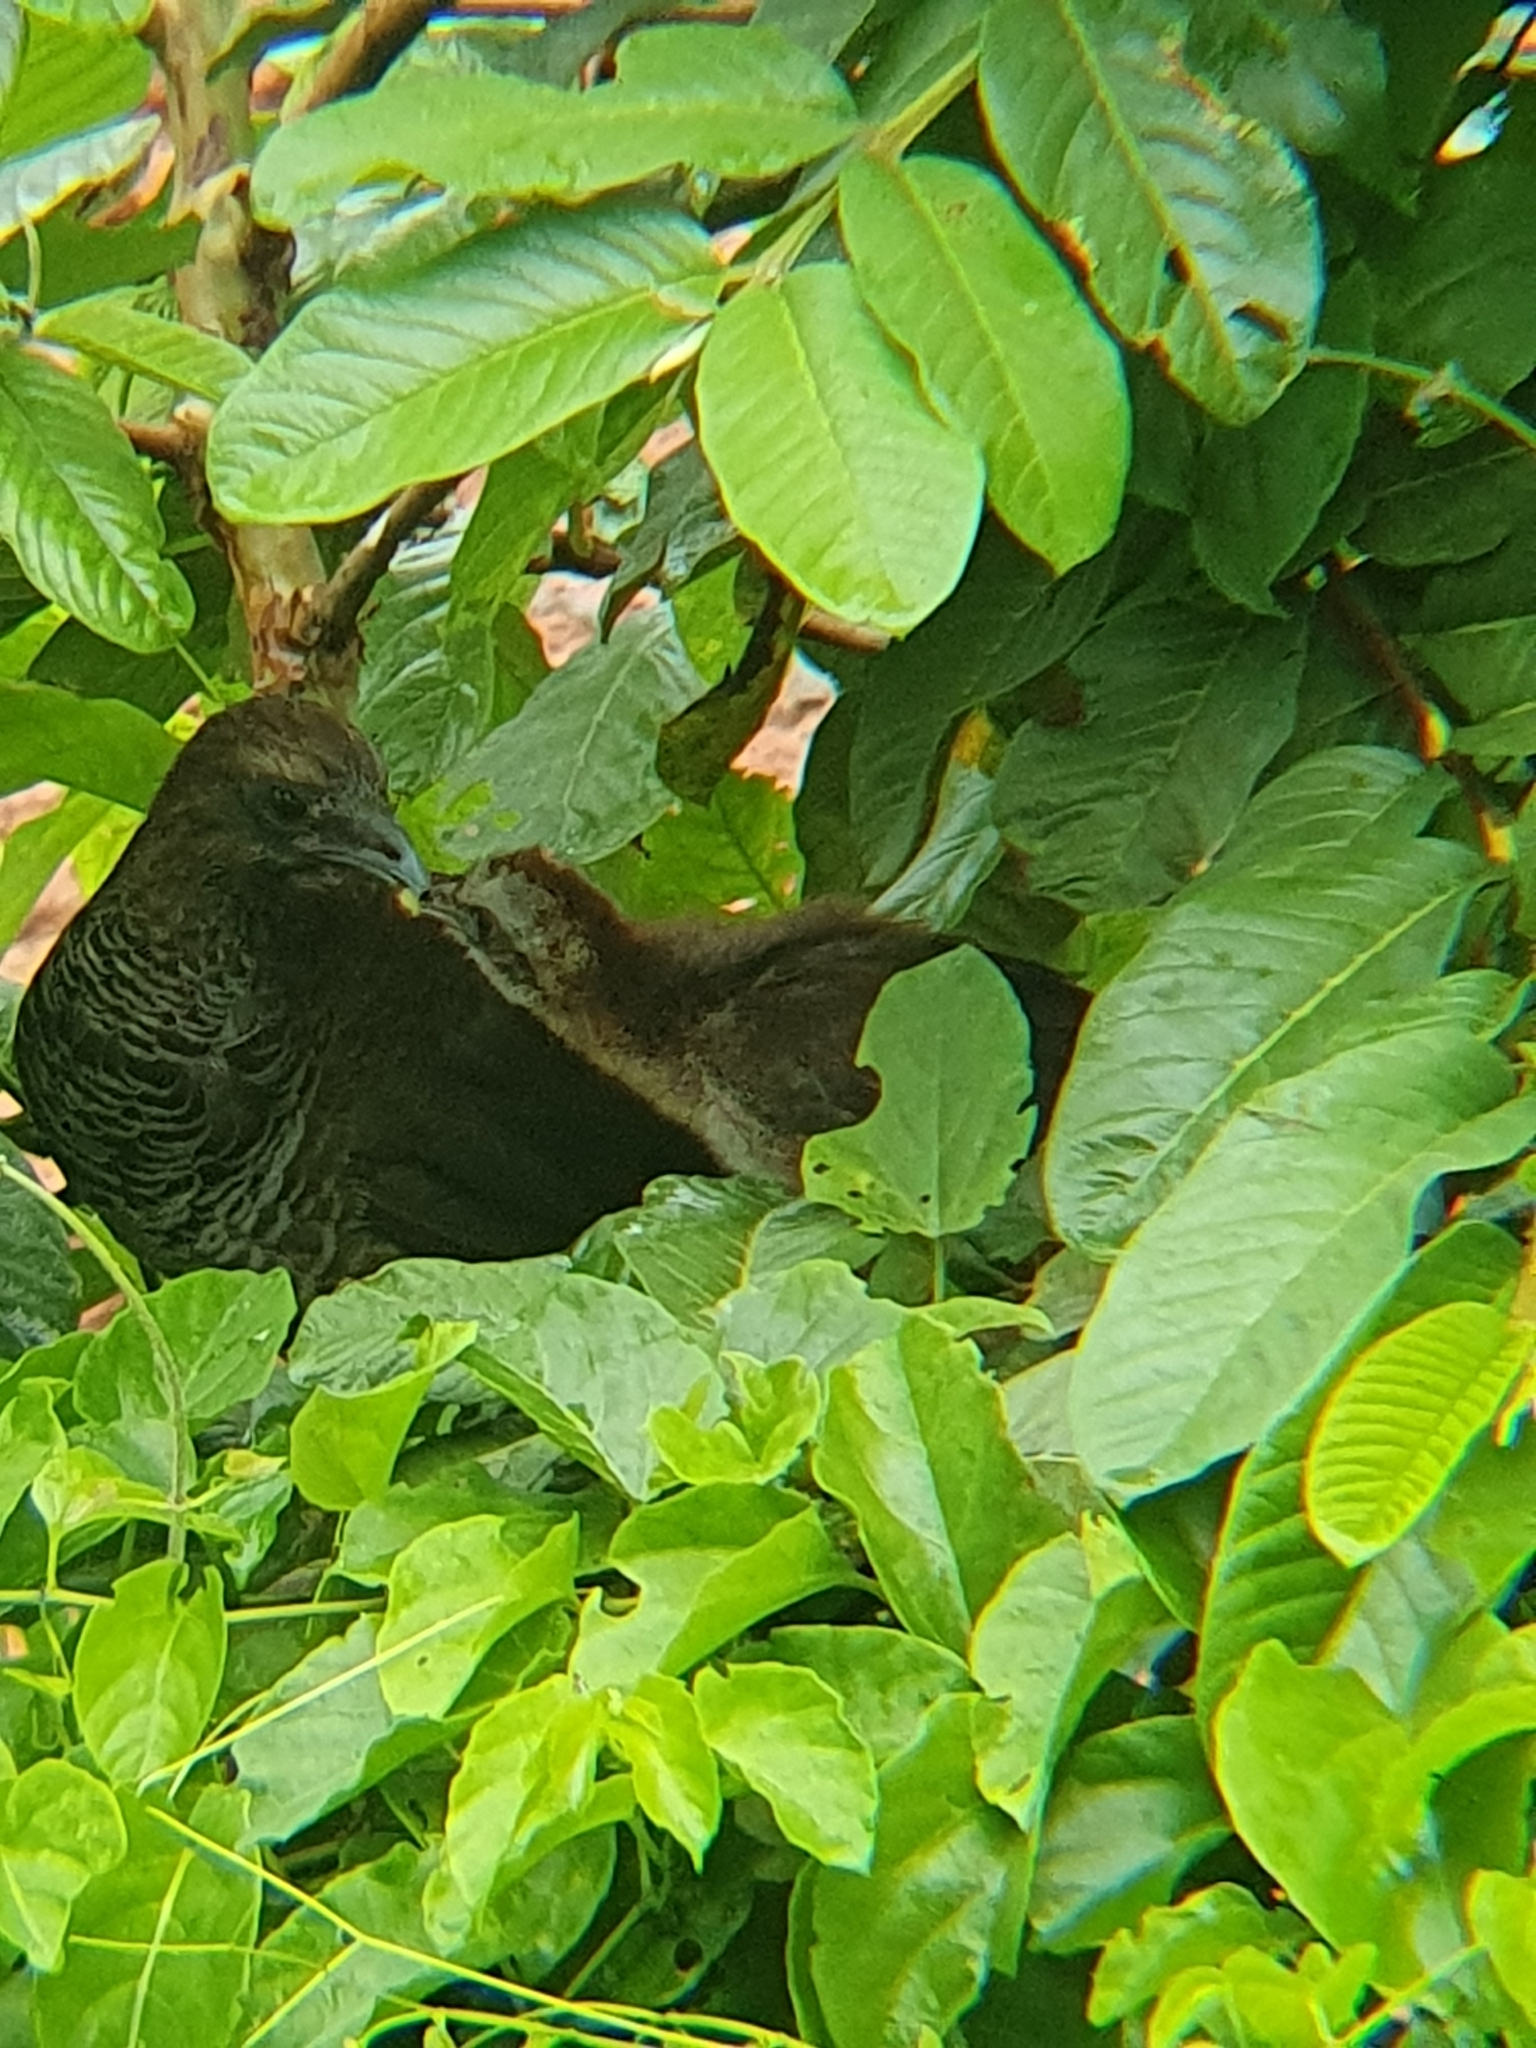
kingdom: Animalia
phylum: Chordata
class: Aves
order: Galliformes
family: Cracidae
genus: Ortalis
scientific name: Ortalis squamata
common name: Scaled chachalaca
